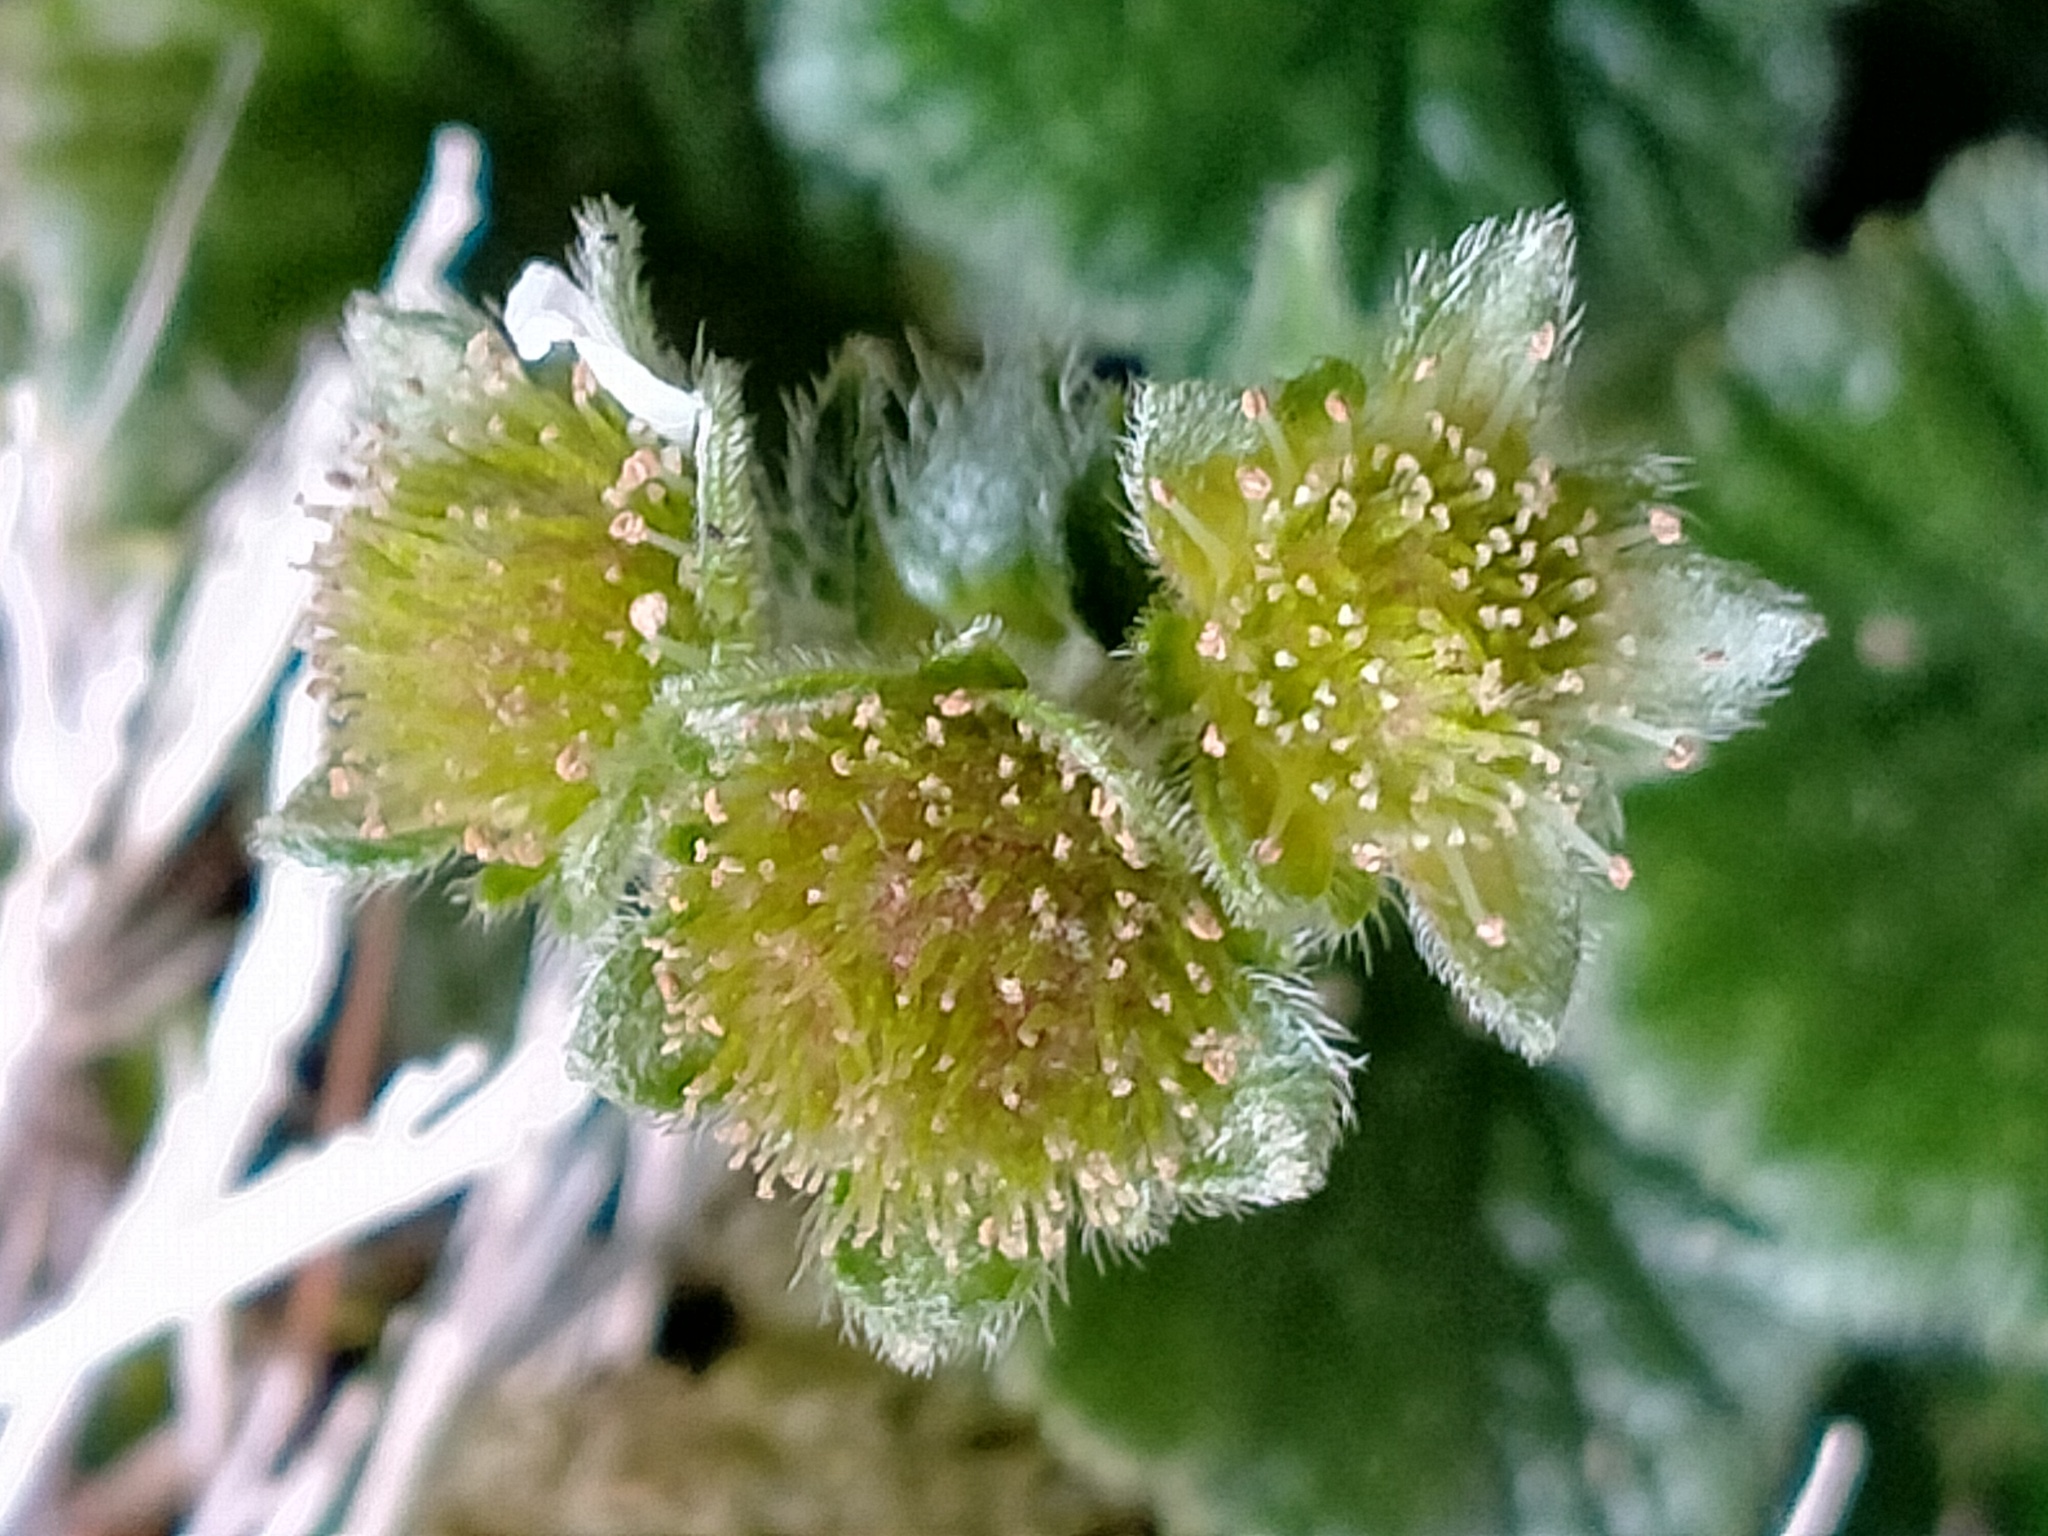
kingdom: Plantae
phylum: Tracheophyta
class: Magnoliopsida
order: Rosales
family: Rosaceae
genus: Geum
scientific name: Geum albiflorum
